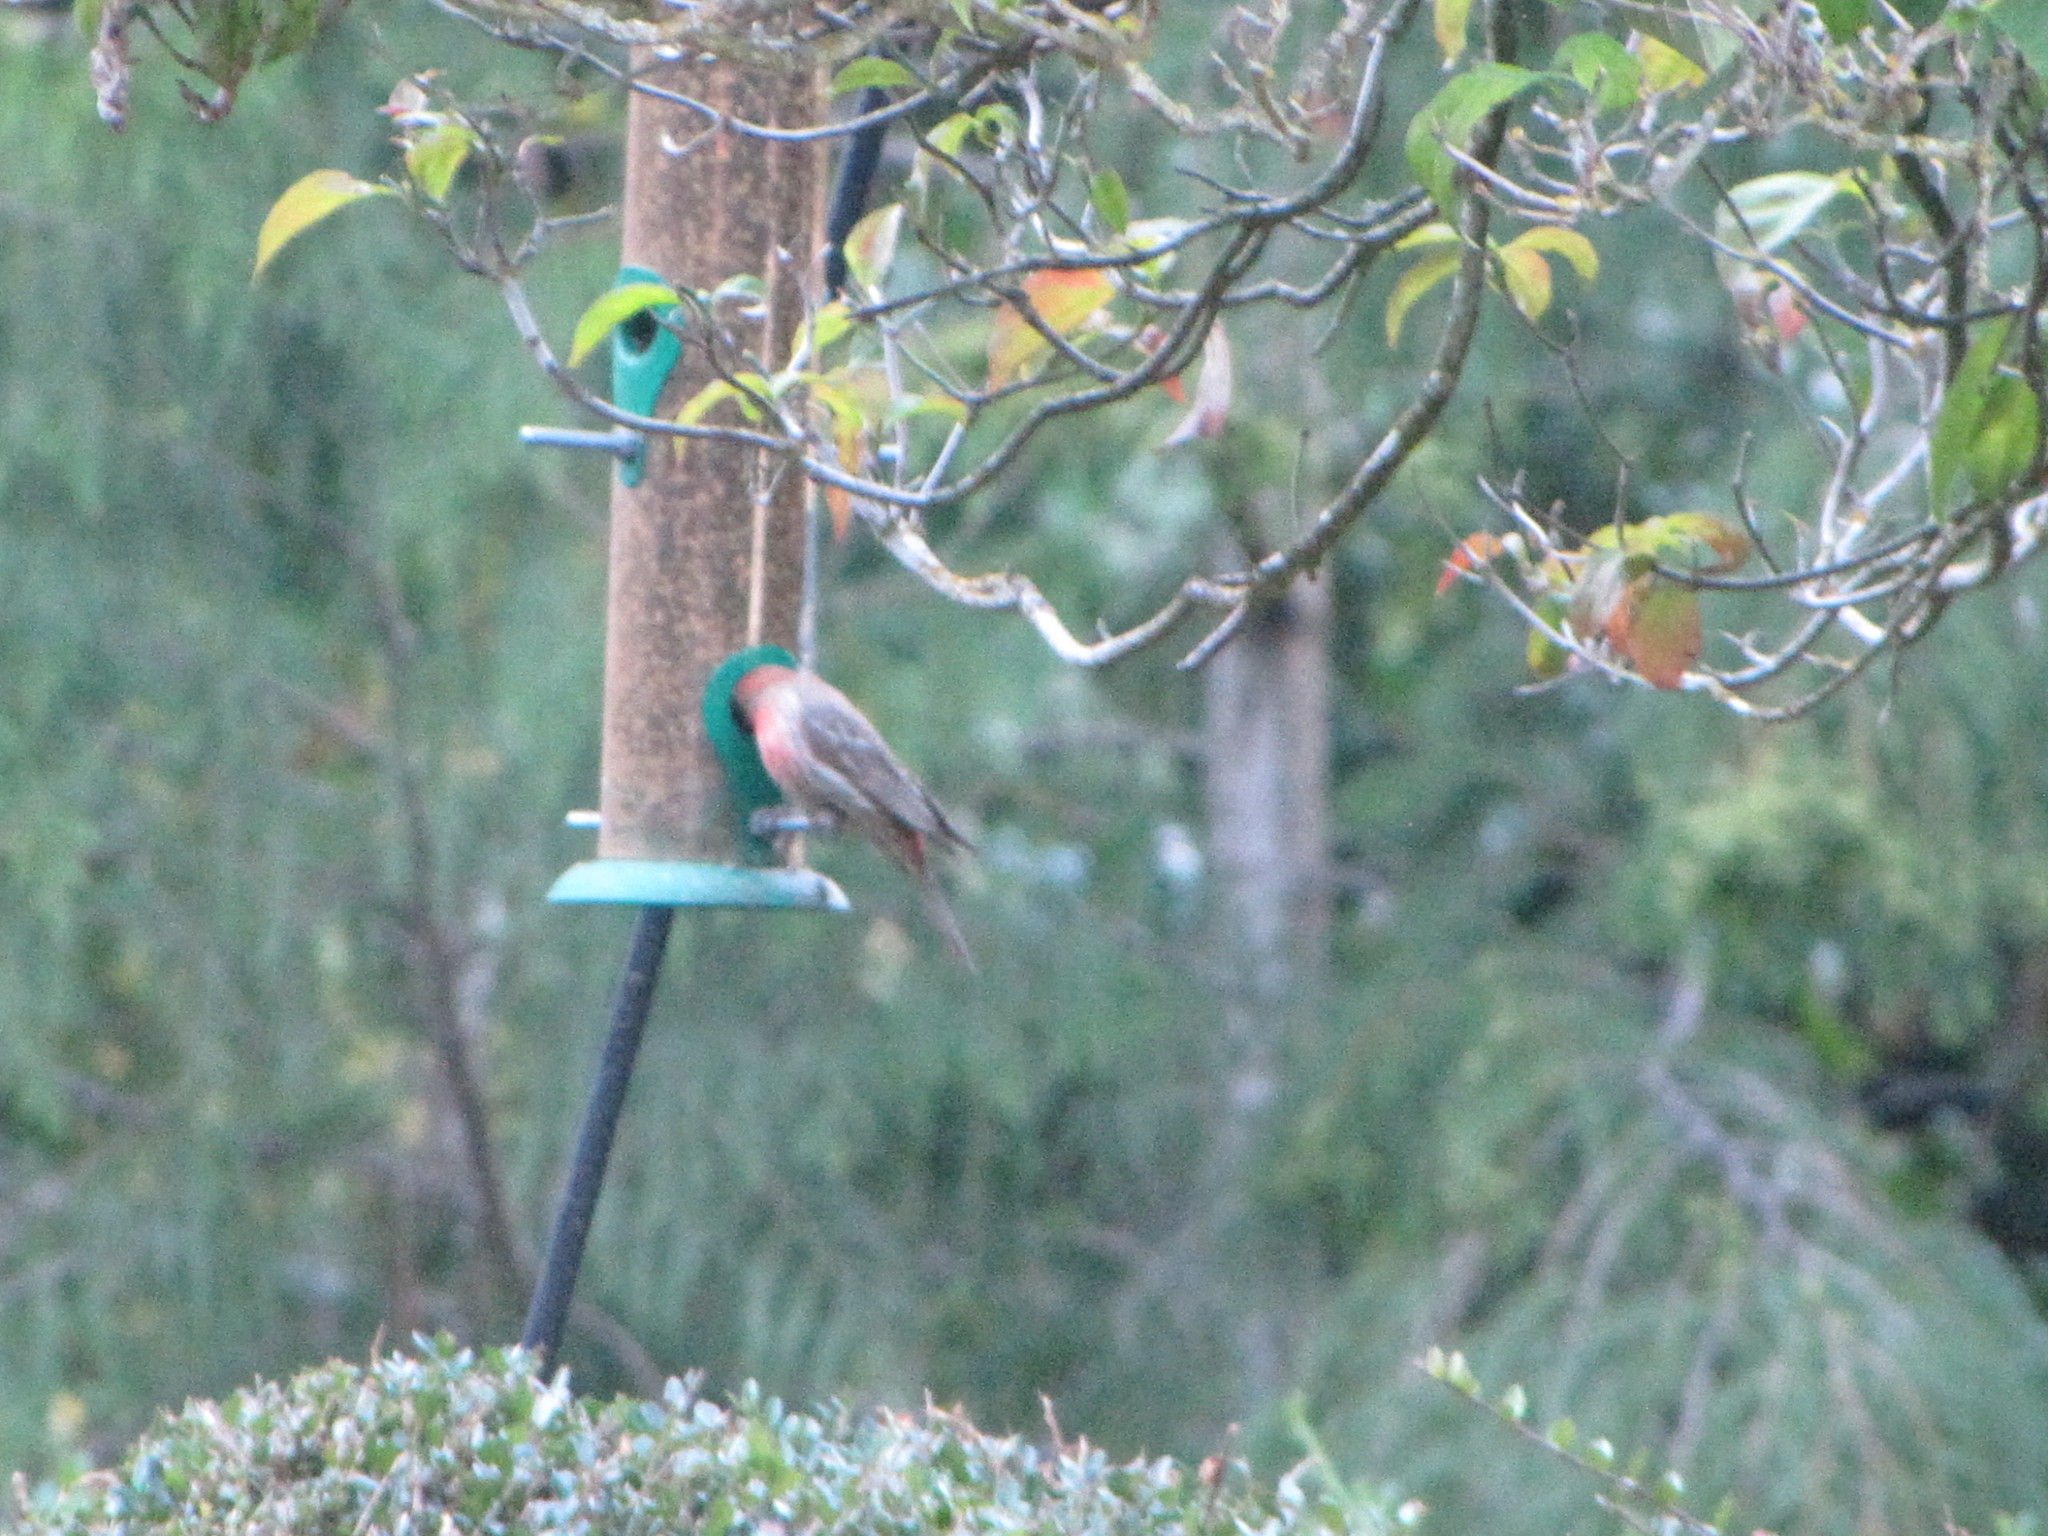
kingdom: Animalia
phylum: Chordata
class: Aves
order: Passeriformes
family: Fringillidae
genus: Haemorhous
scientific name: Haemorhous mexicanus
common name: House finch
